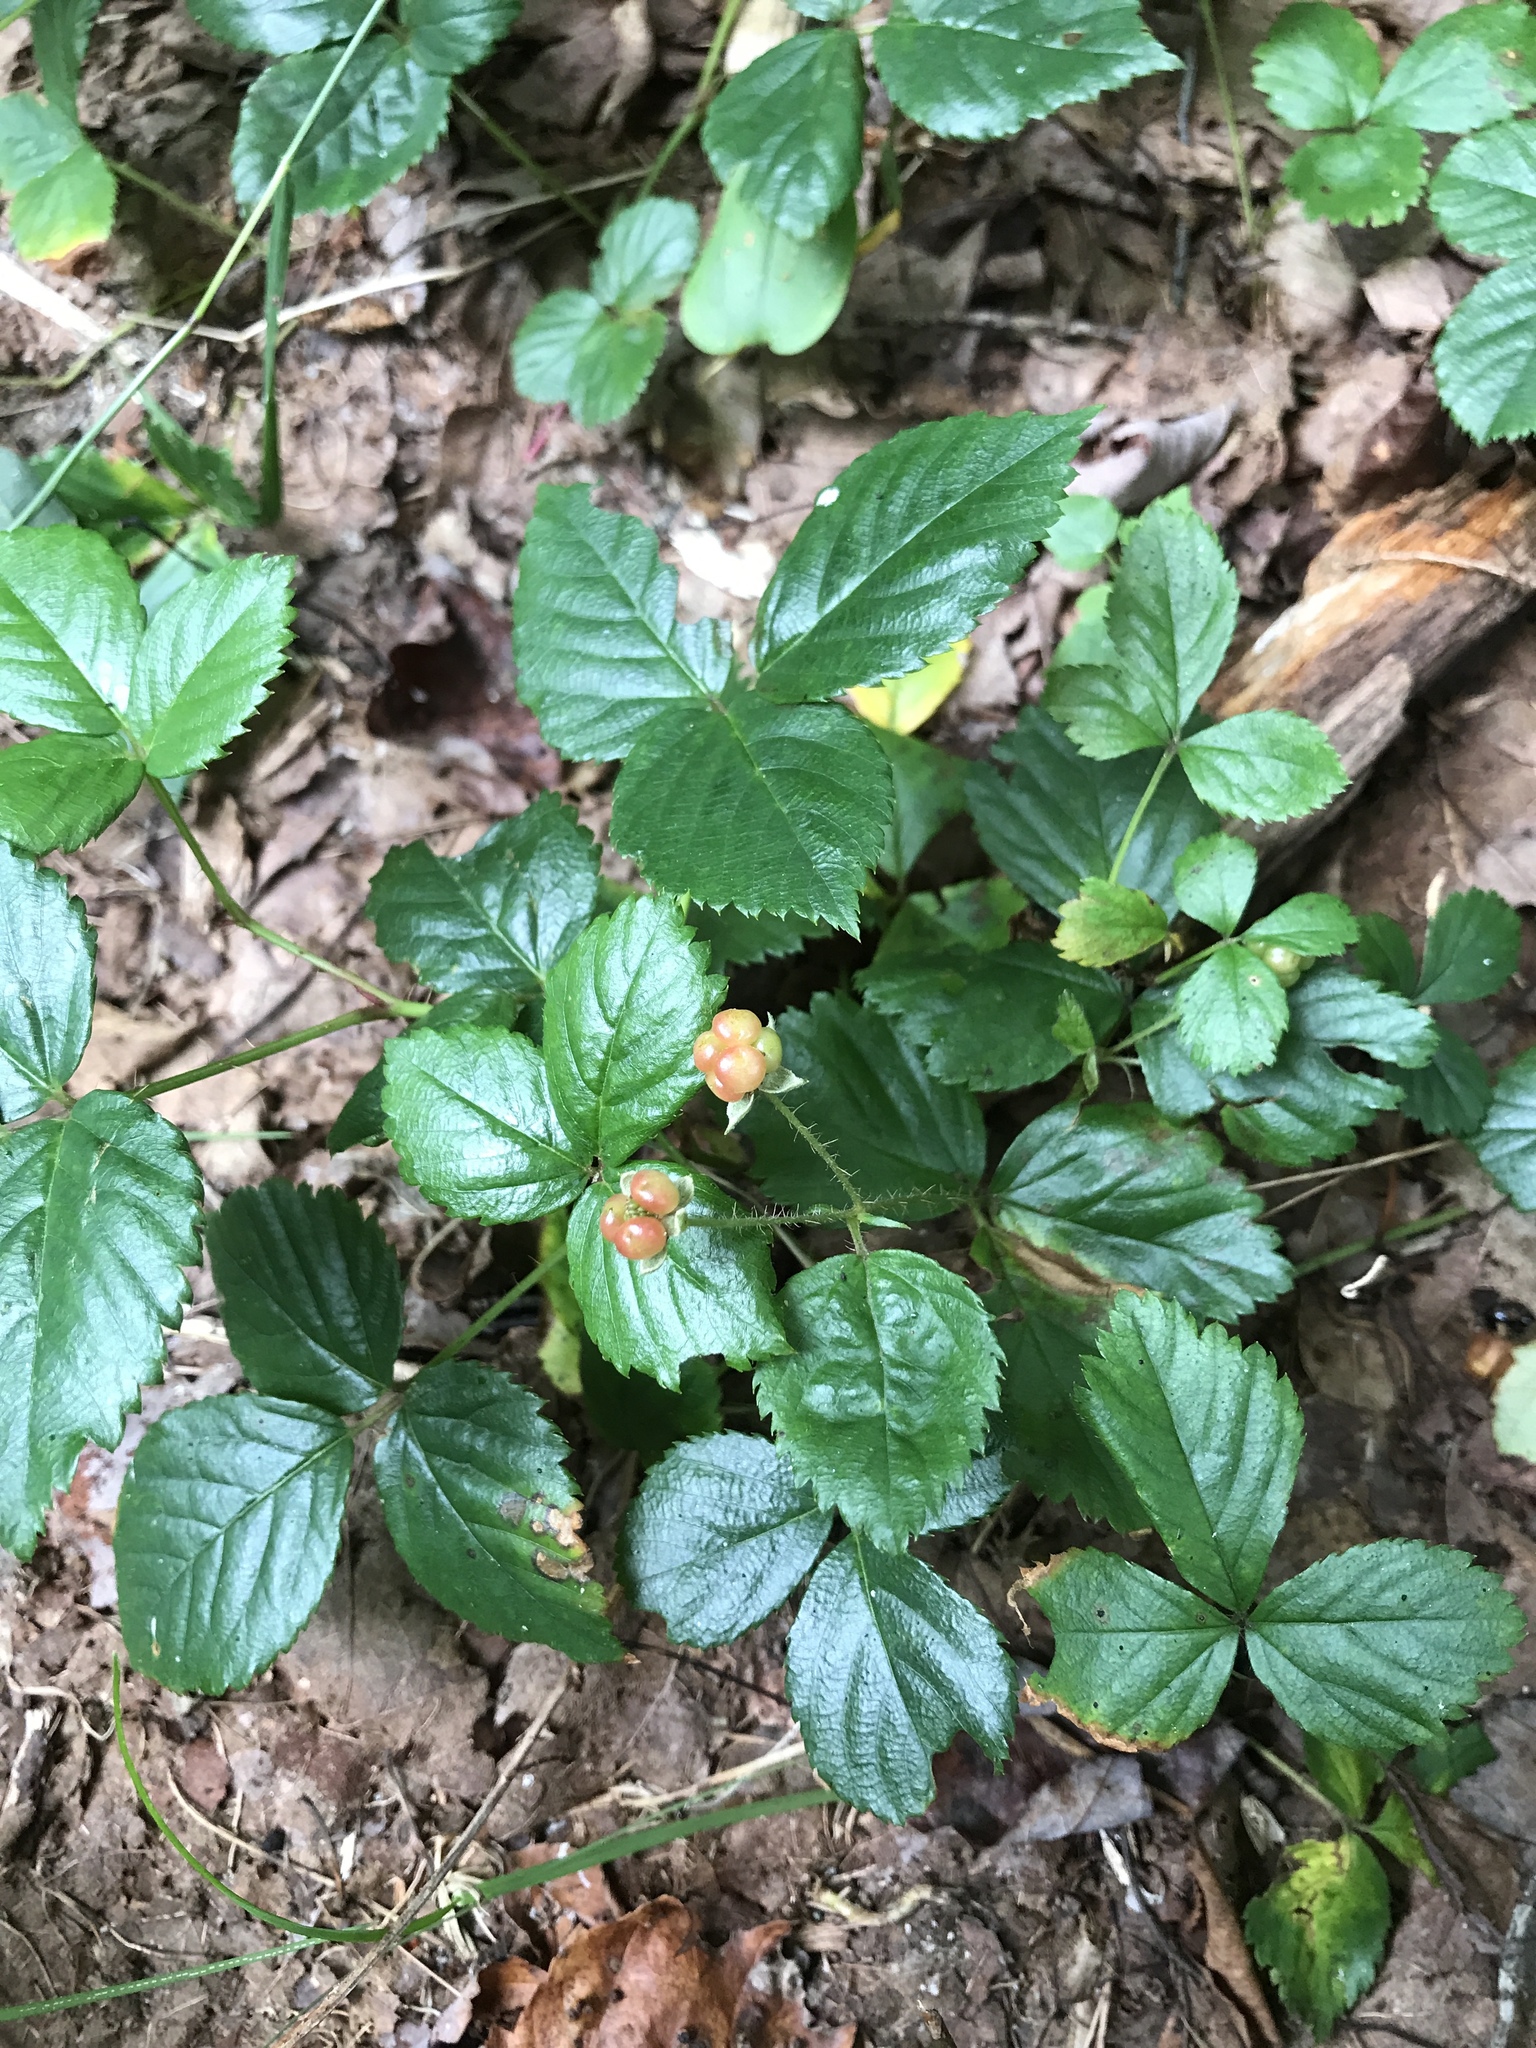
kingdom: Plantae
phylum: Tracheophyta
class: Magnoliopsida
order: Rosales
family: Rosaceae
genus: Rubus
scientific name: Rubus hispidus
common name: Running blackberry
